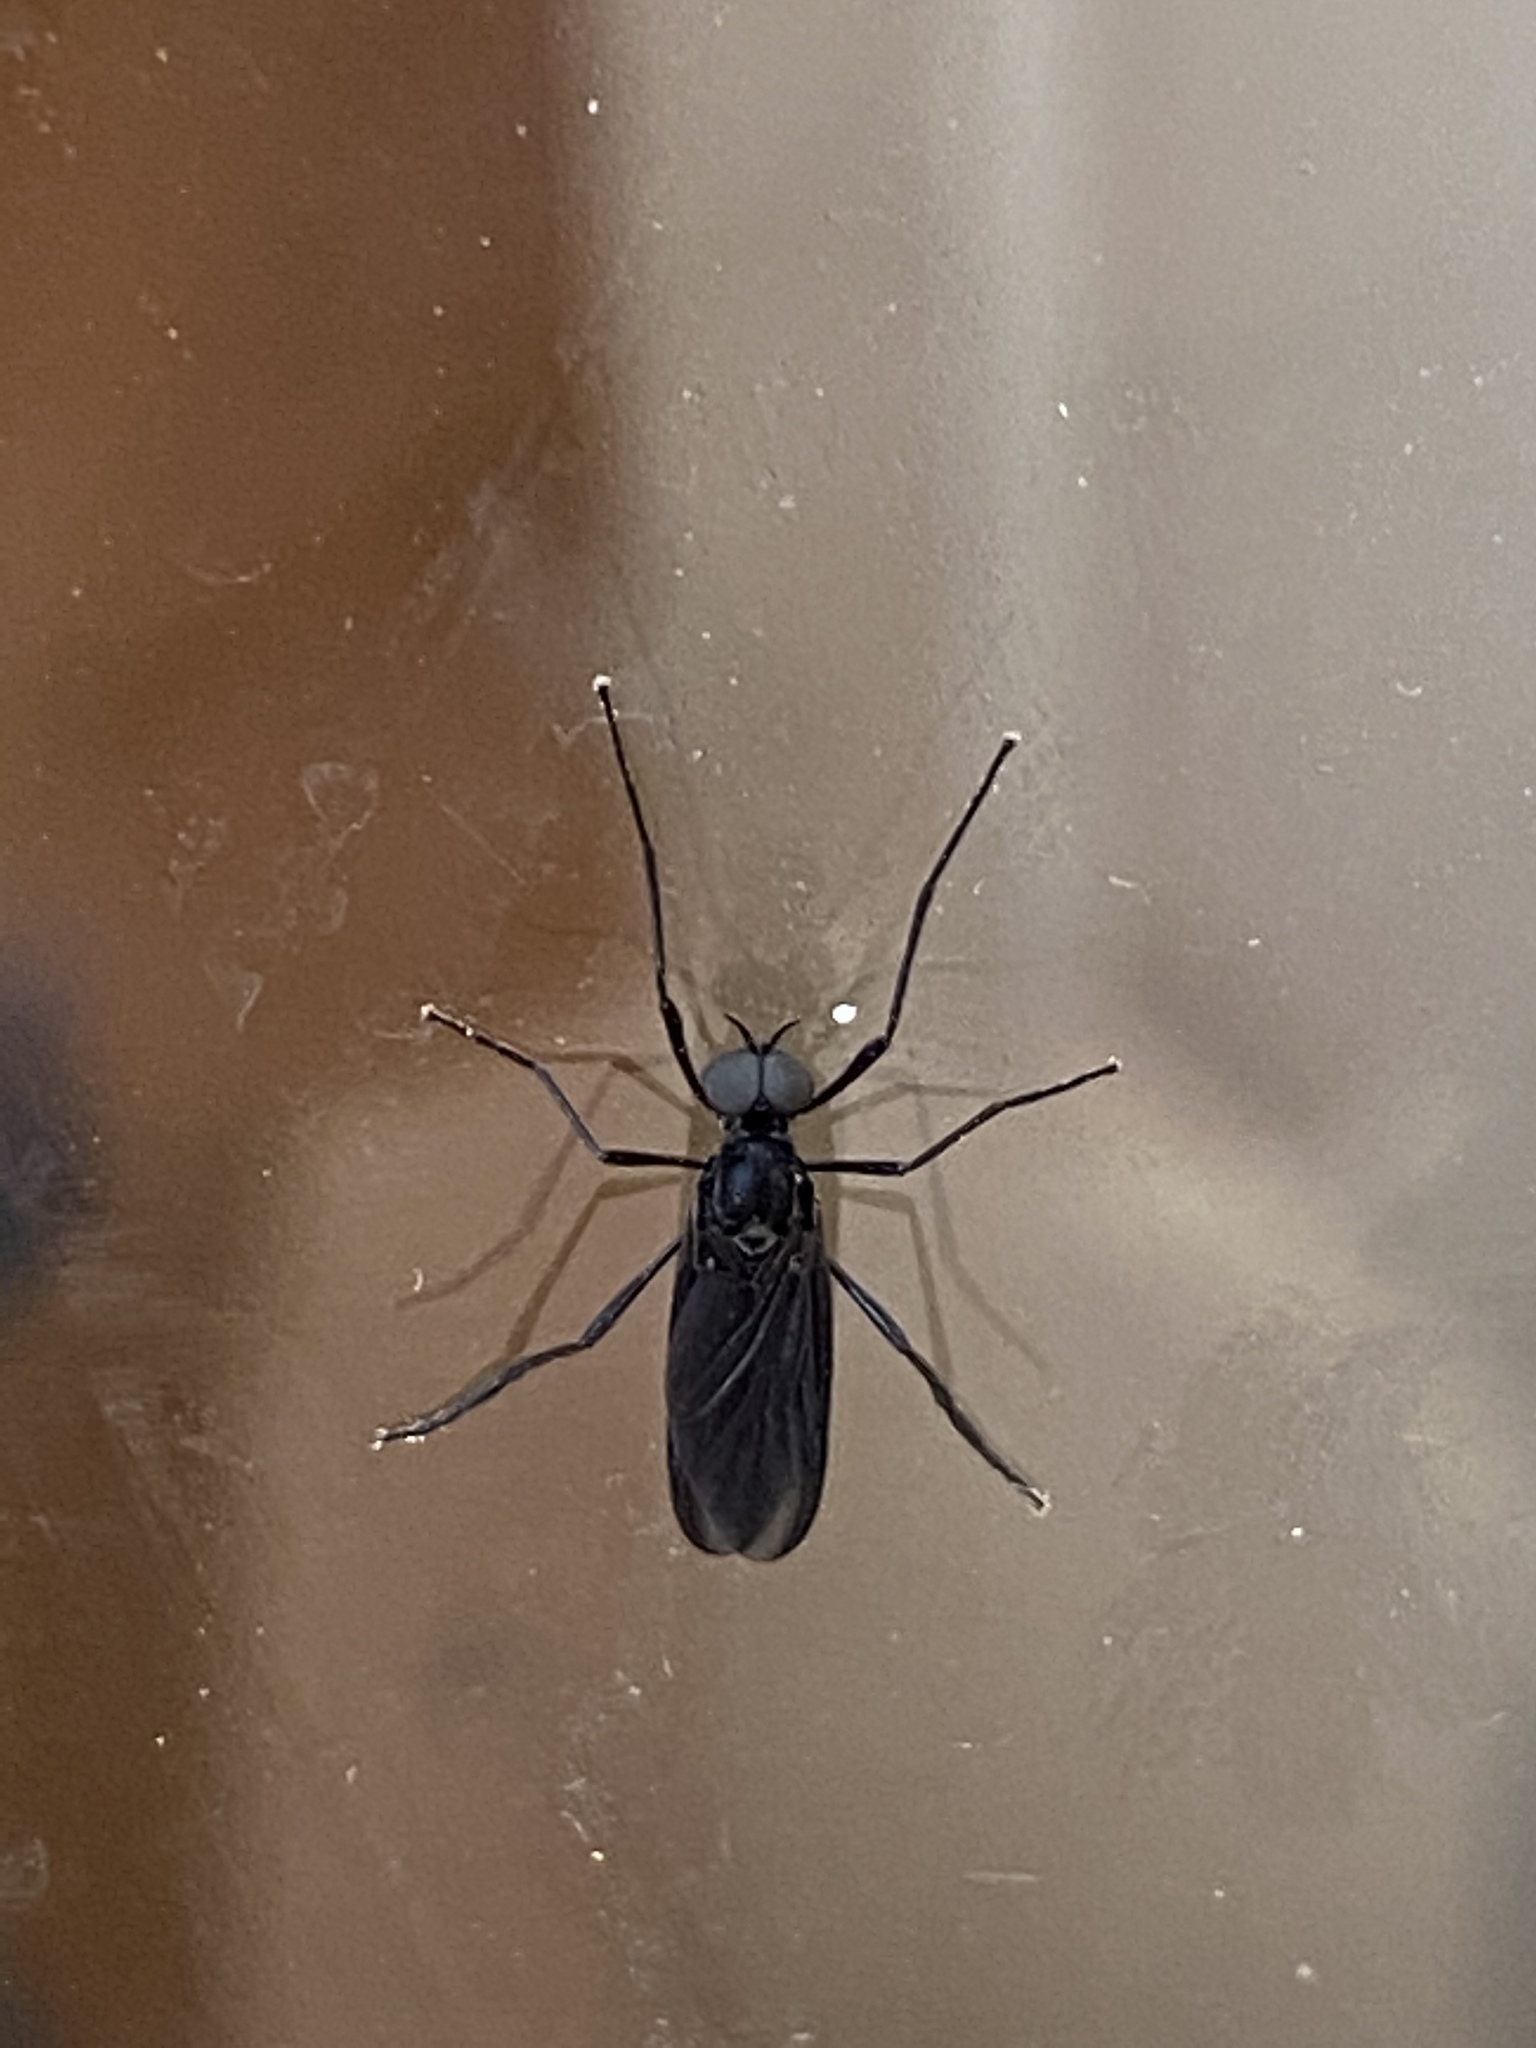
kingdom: Animalia
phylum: Arthropoda
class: Insecta
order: Diptera
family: Bibionidae
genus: Penthetria
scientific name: Penthetria heteroptera
